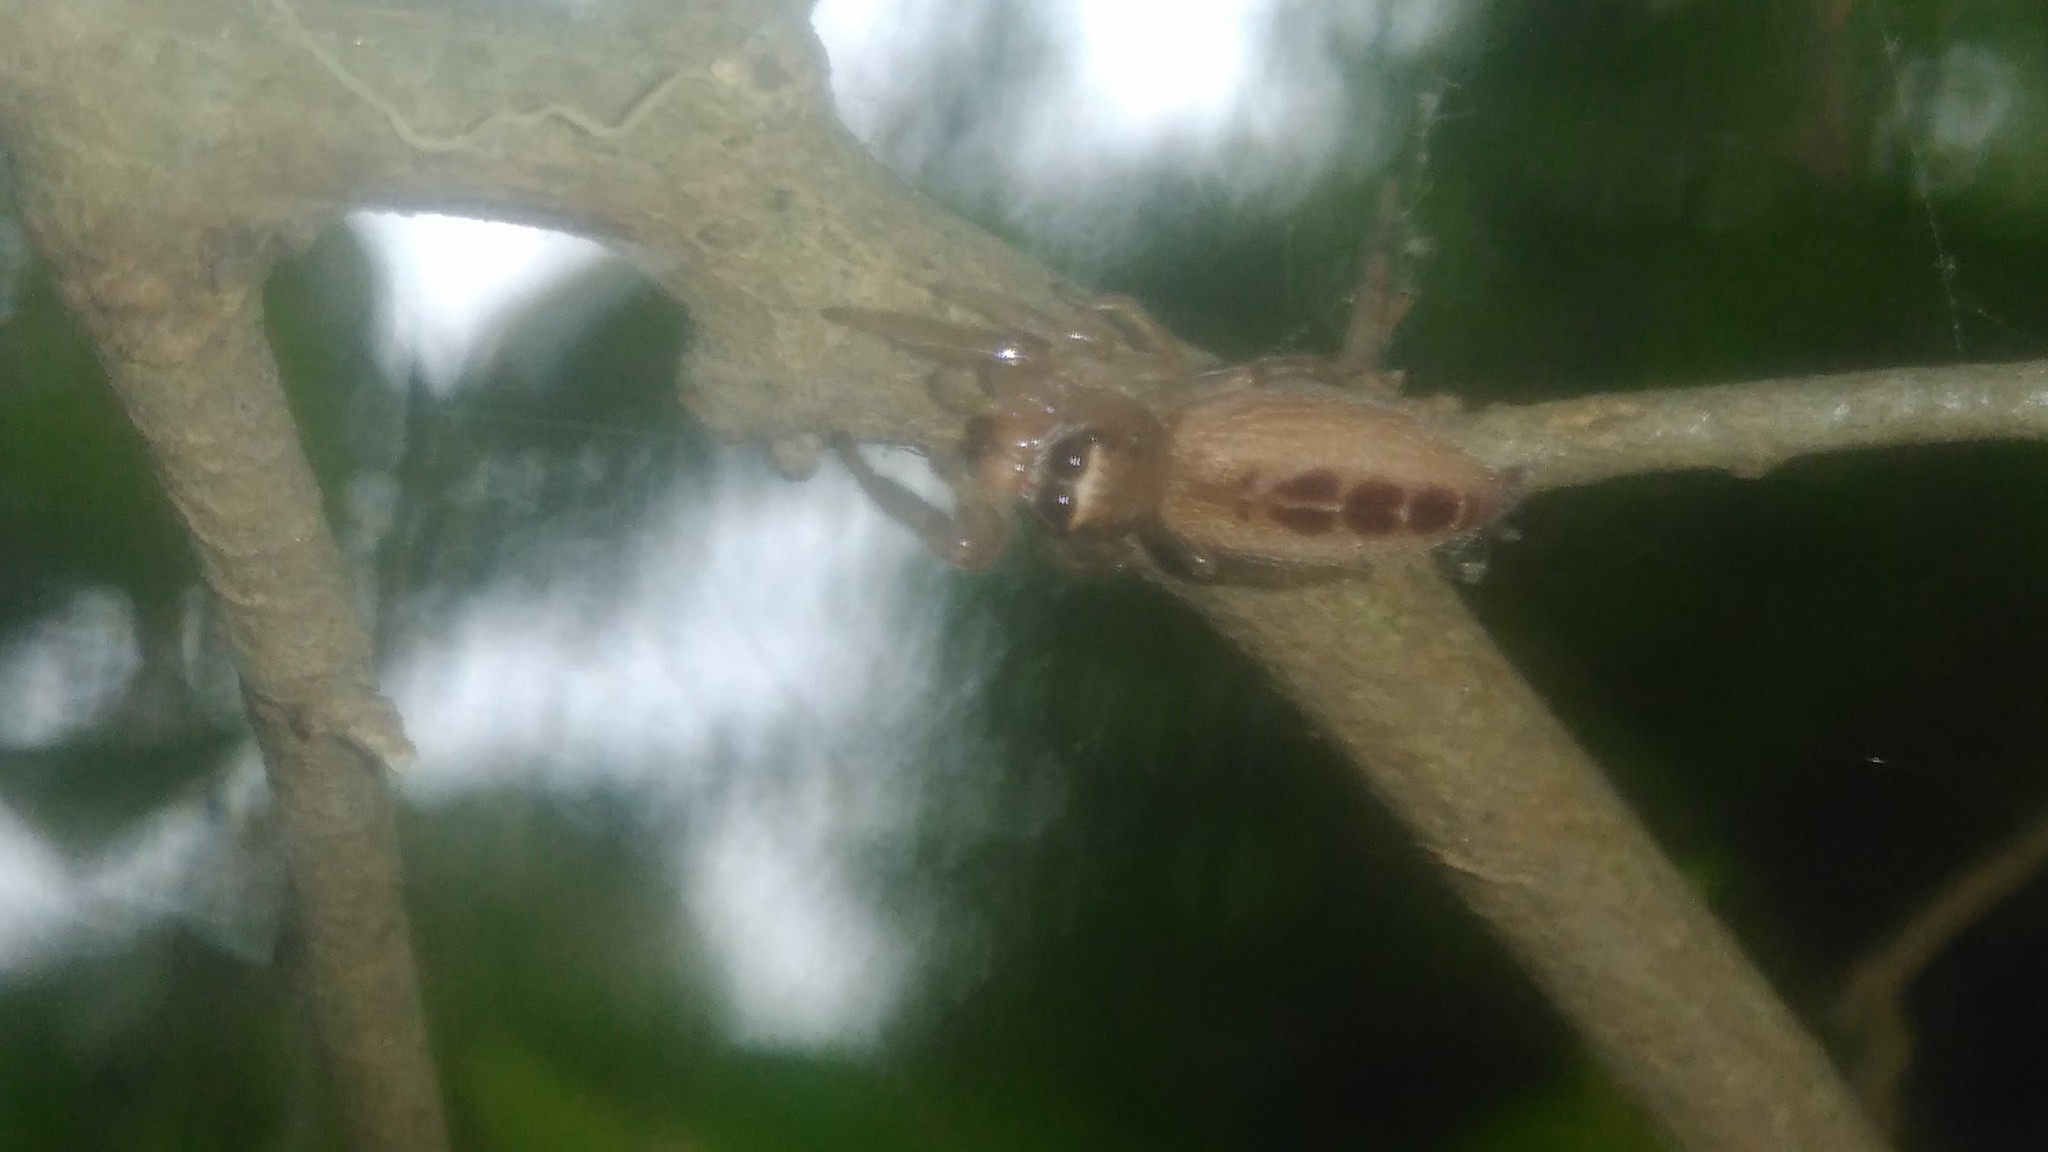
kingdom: Animalia
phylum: Arthropoda
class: Arachnida
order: Araneae
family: Salticidae
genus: Cotinusa
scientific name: Cotinusa vittata
